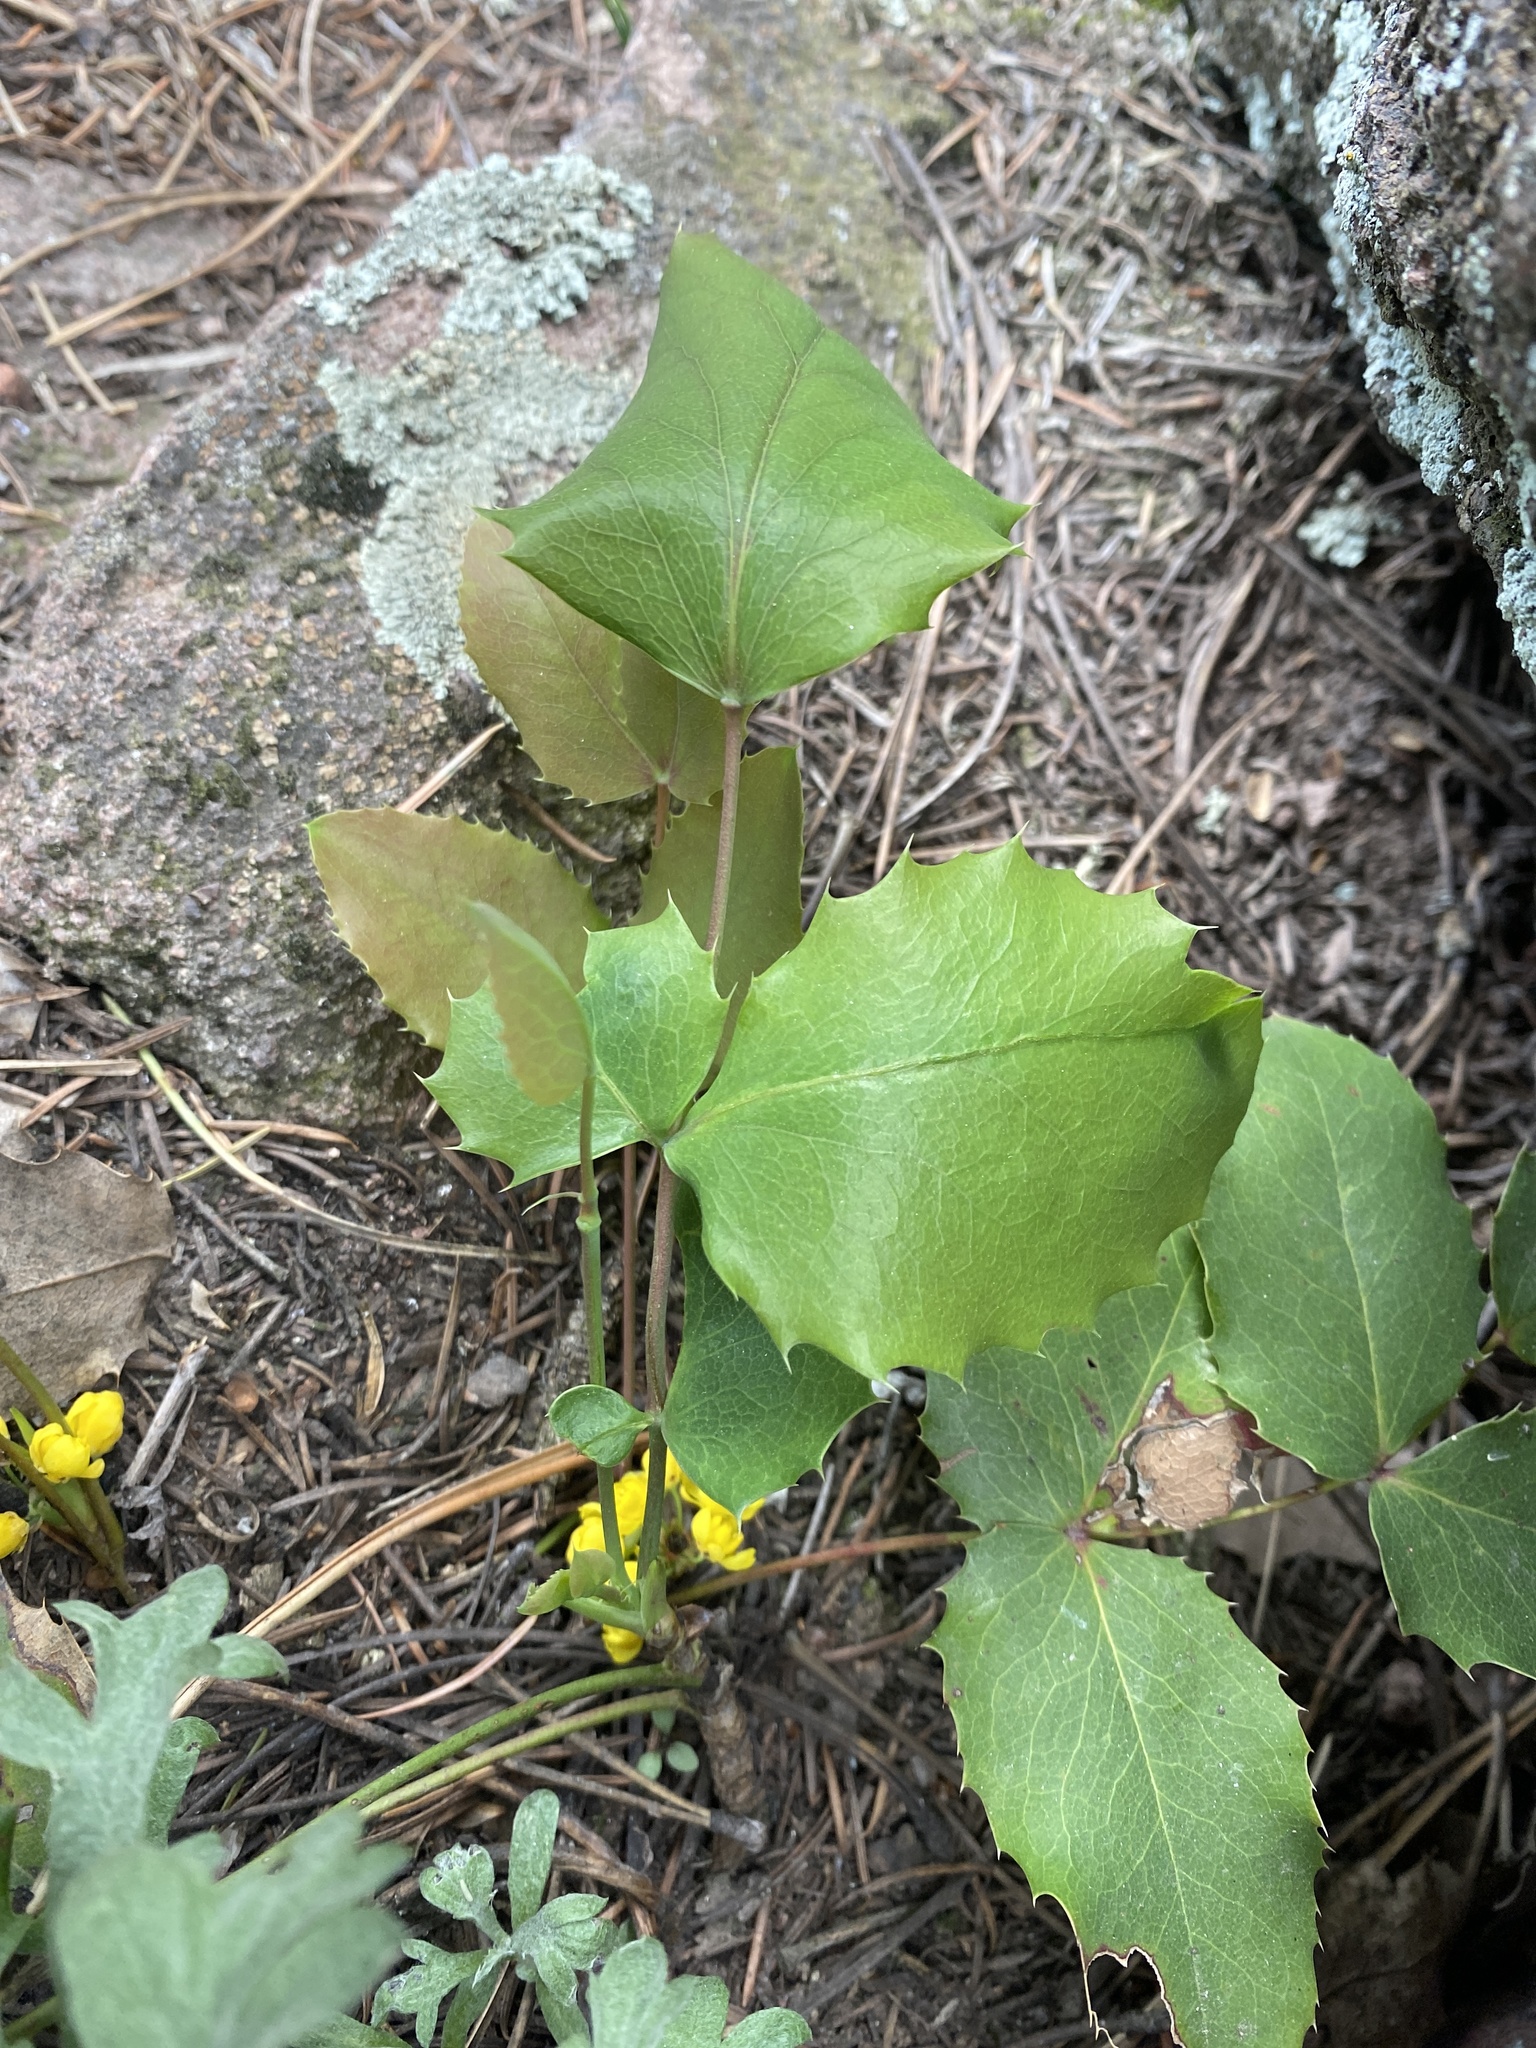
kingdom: Plantae
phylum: Tracheophyta
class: Magnoliopsida
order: Ranunculales
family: Berberidaceae
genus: Mahonia
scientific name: Mahonia repens
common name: Creeping oregon-grape
